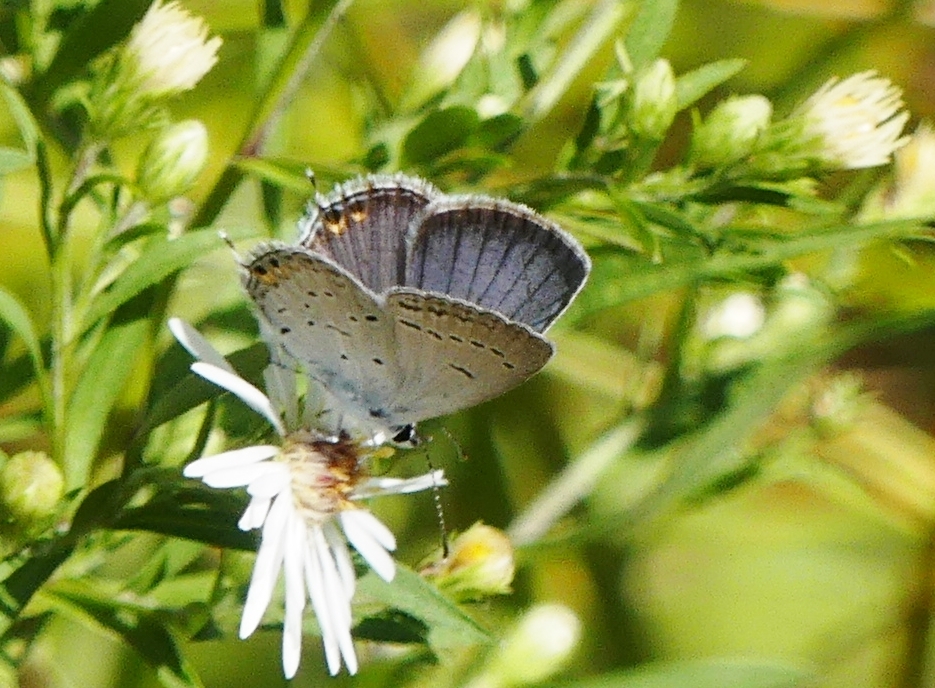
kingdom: Animalia
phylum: Arthropoda
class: Insecta
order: Lepidoptera
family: Lycaenidae
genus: Elkalyce
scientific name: Elkalyce comyntas
